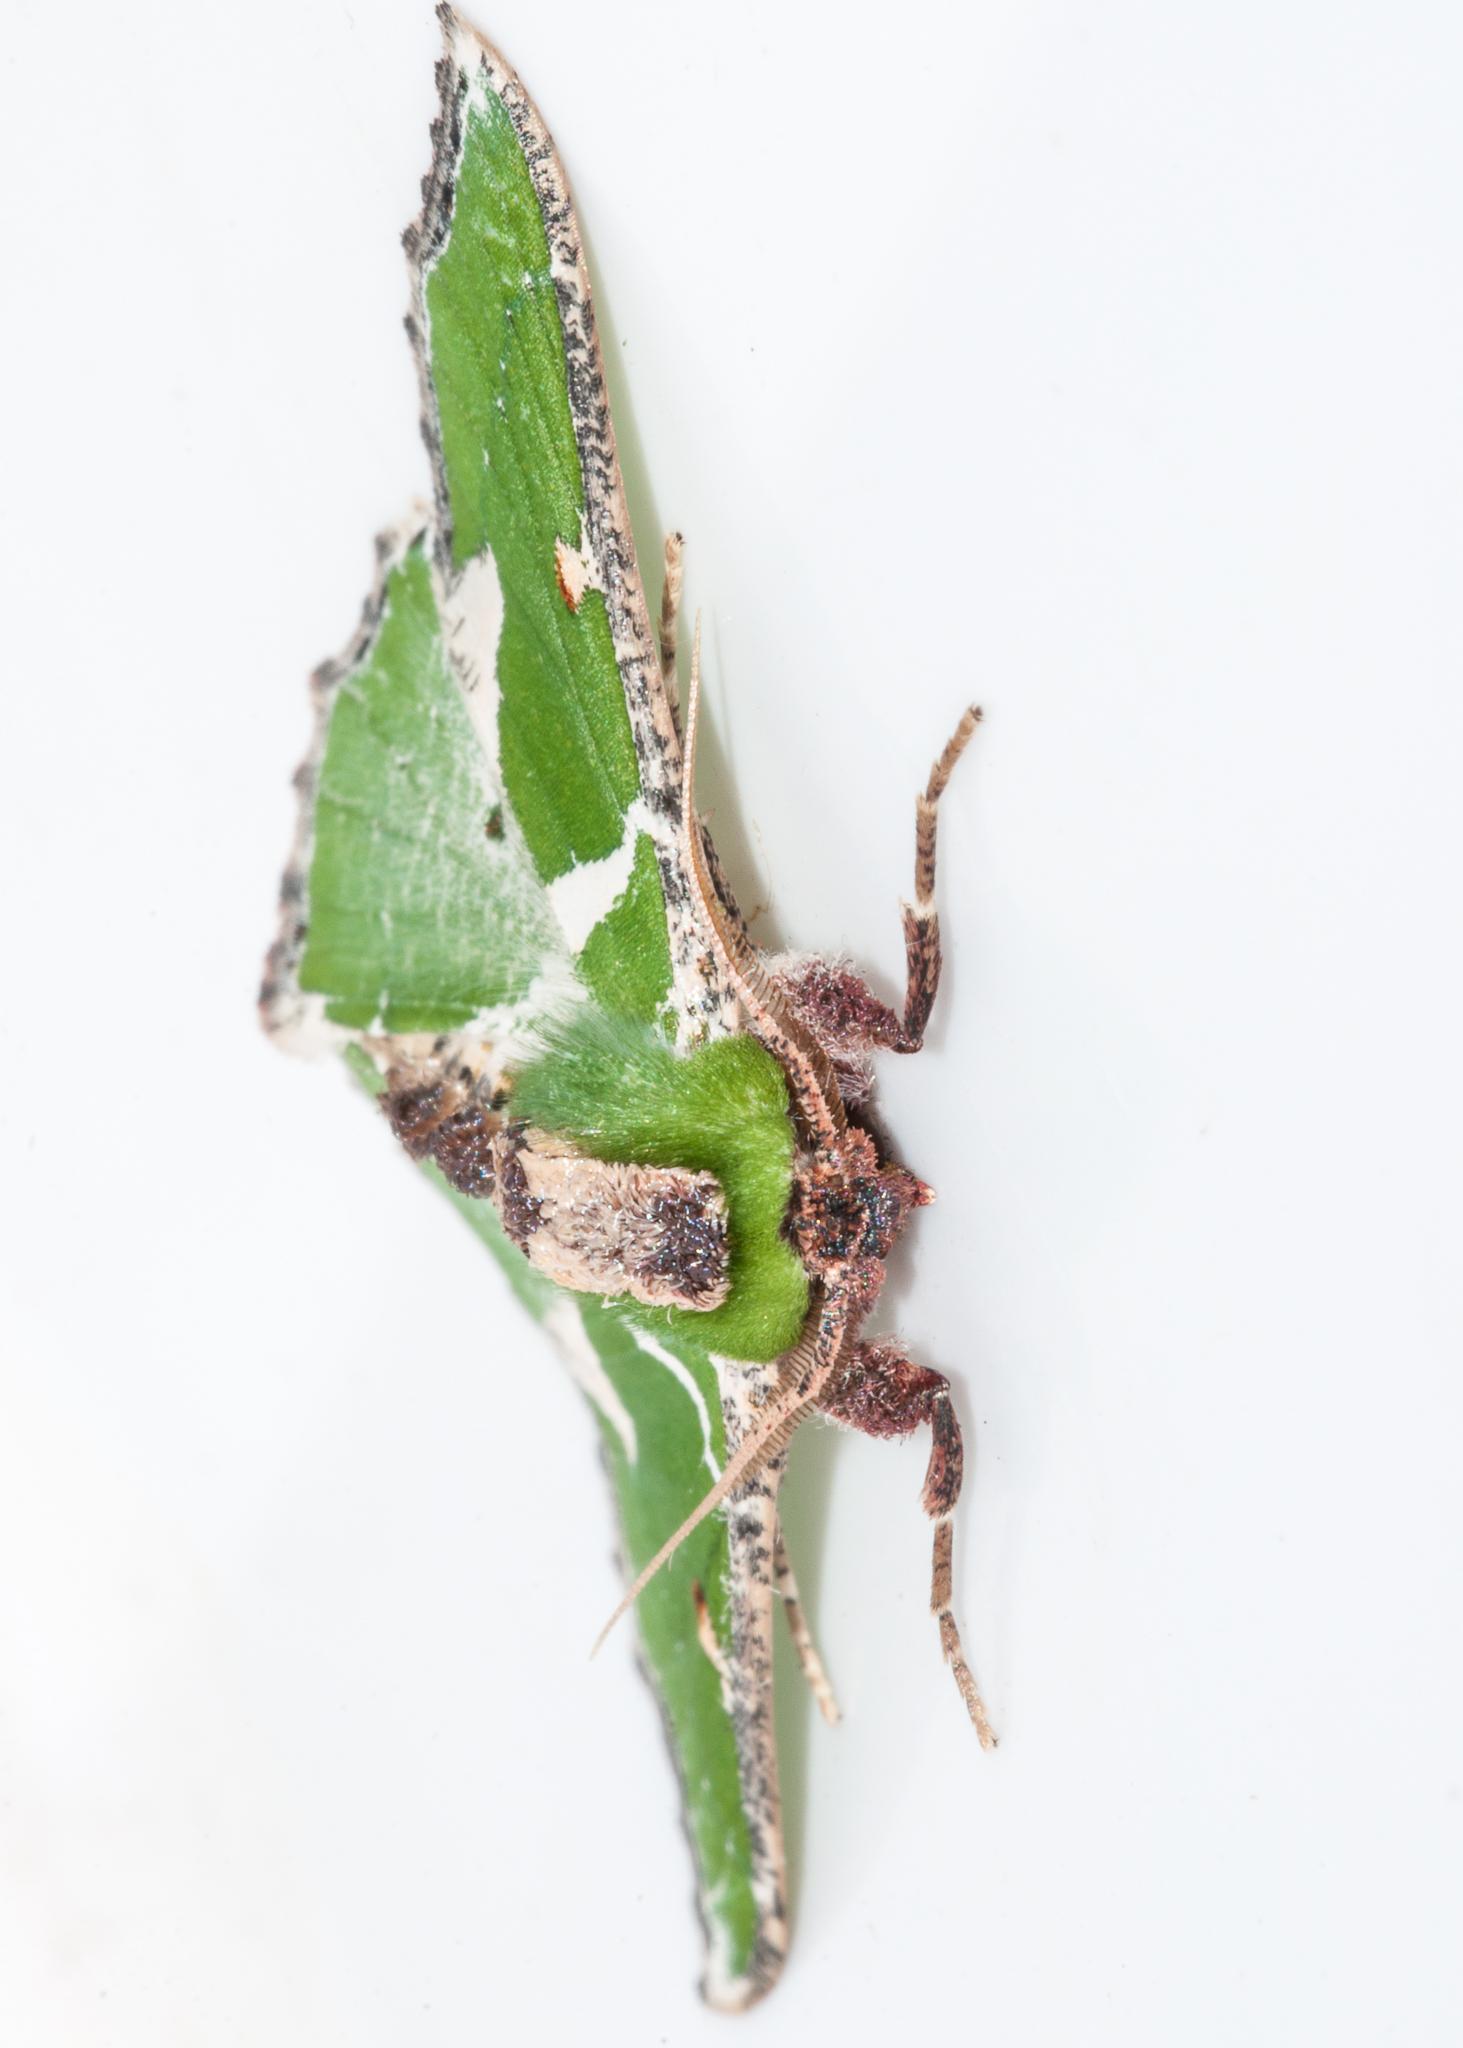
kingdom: Animalia
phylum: Arthropoda
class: Insecta
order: Lepidoptera
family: Geometridae
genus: Victoria
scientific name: Victoria albipicta
